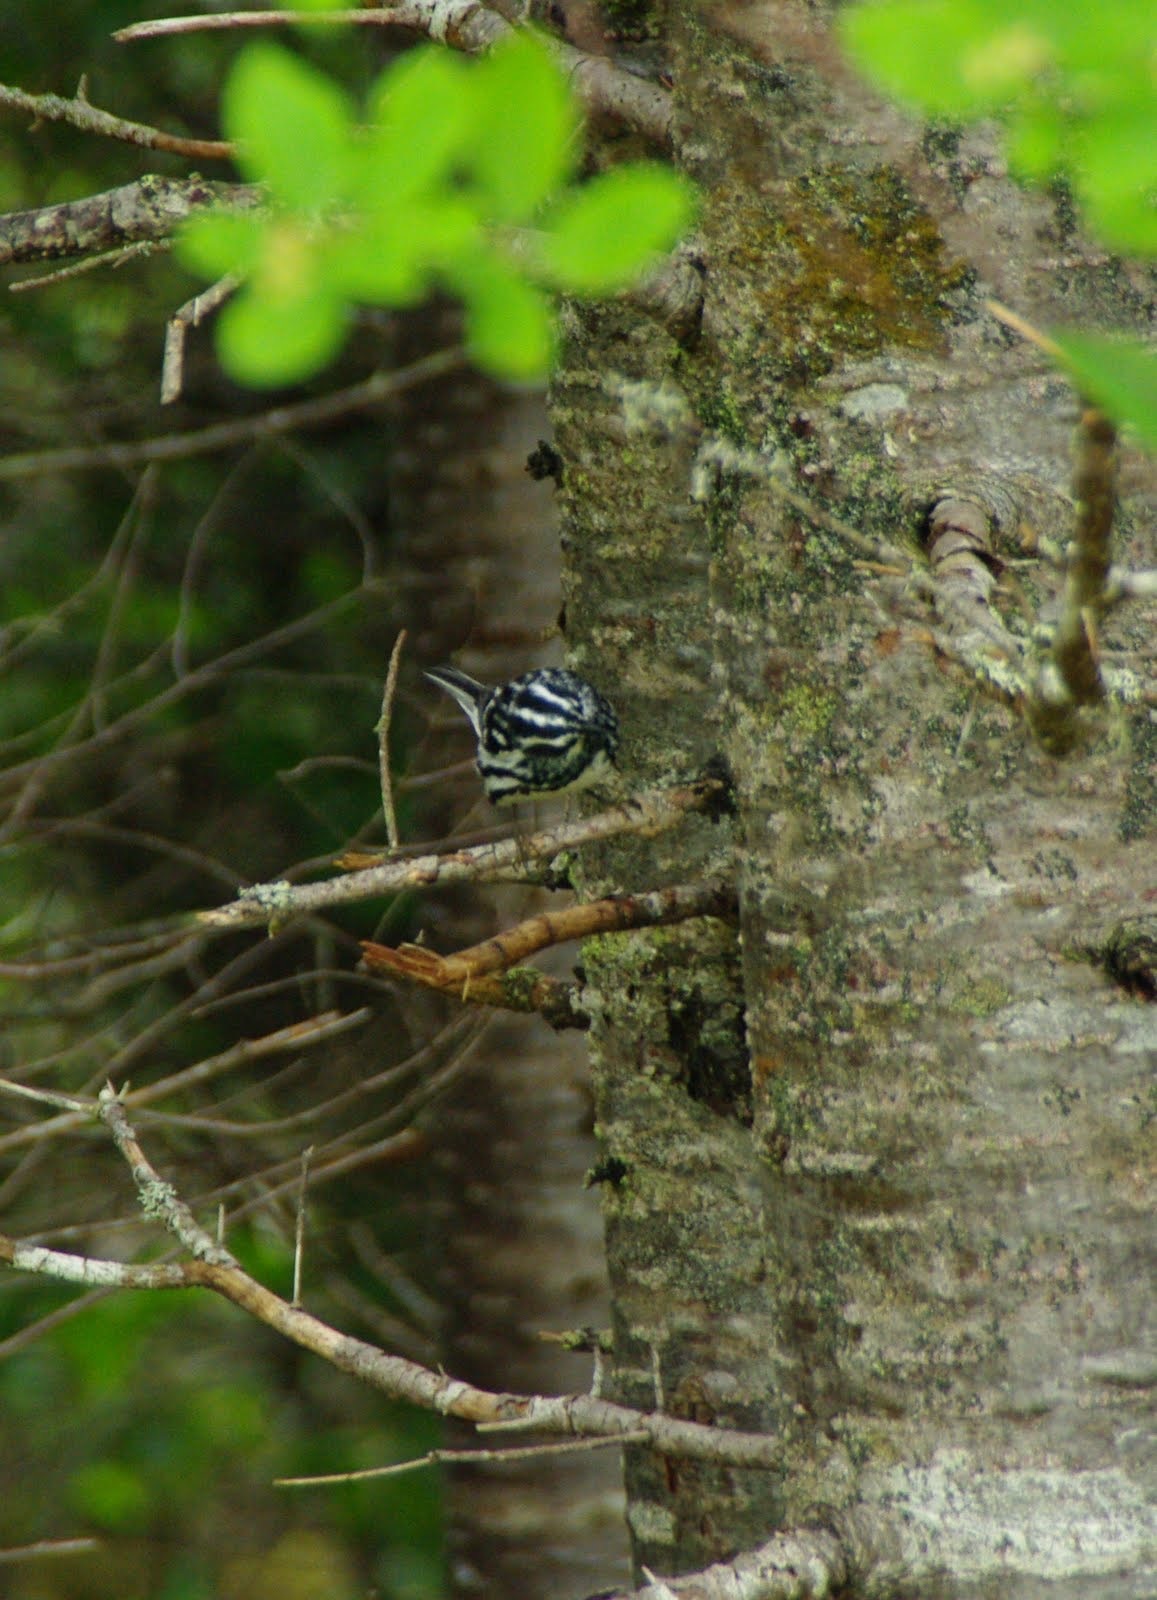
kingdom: Animalia
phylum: Chordata
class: Aves
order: Passeriformes
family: Parulidae
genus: Mniotilta
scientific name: Mniotilta varia
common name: Black-and-white warbler
